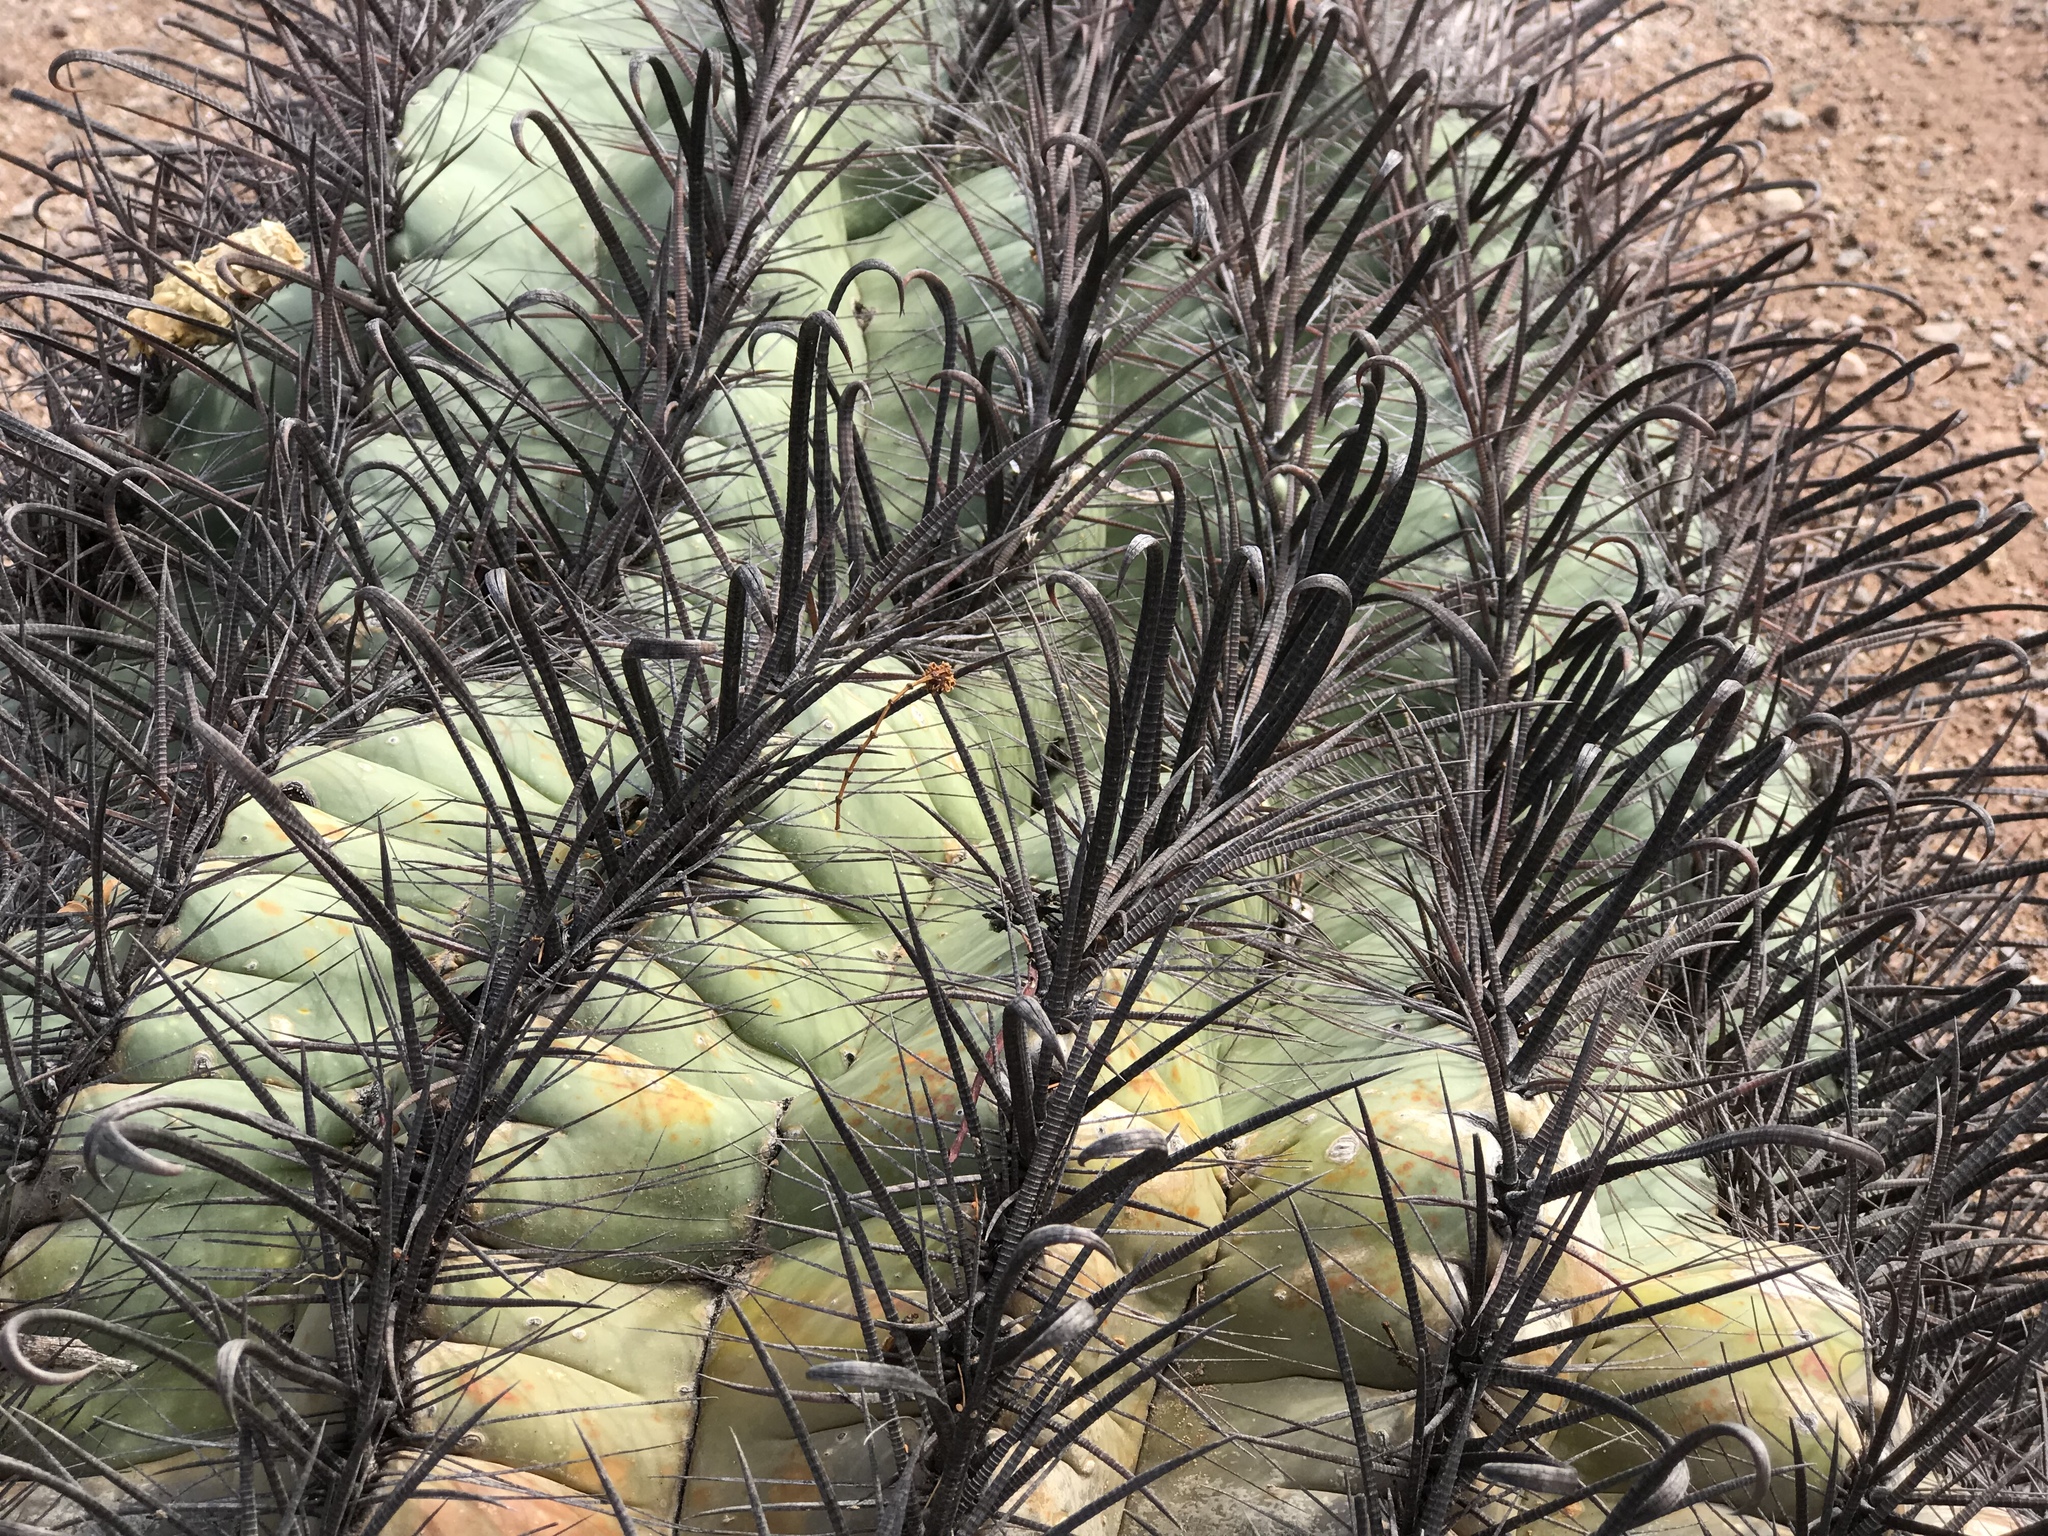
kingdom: Plantae
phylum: Tracheophyta
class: Magnoliopsida
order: Caryophyllales
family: Cactaceae
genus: Ferocactus
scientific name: Ferocactus wislizeni
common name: Candy barrel cactus
